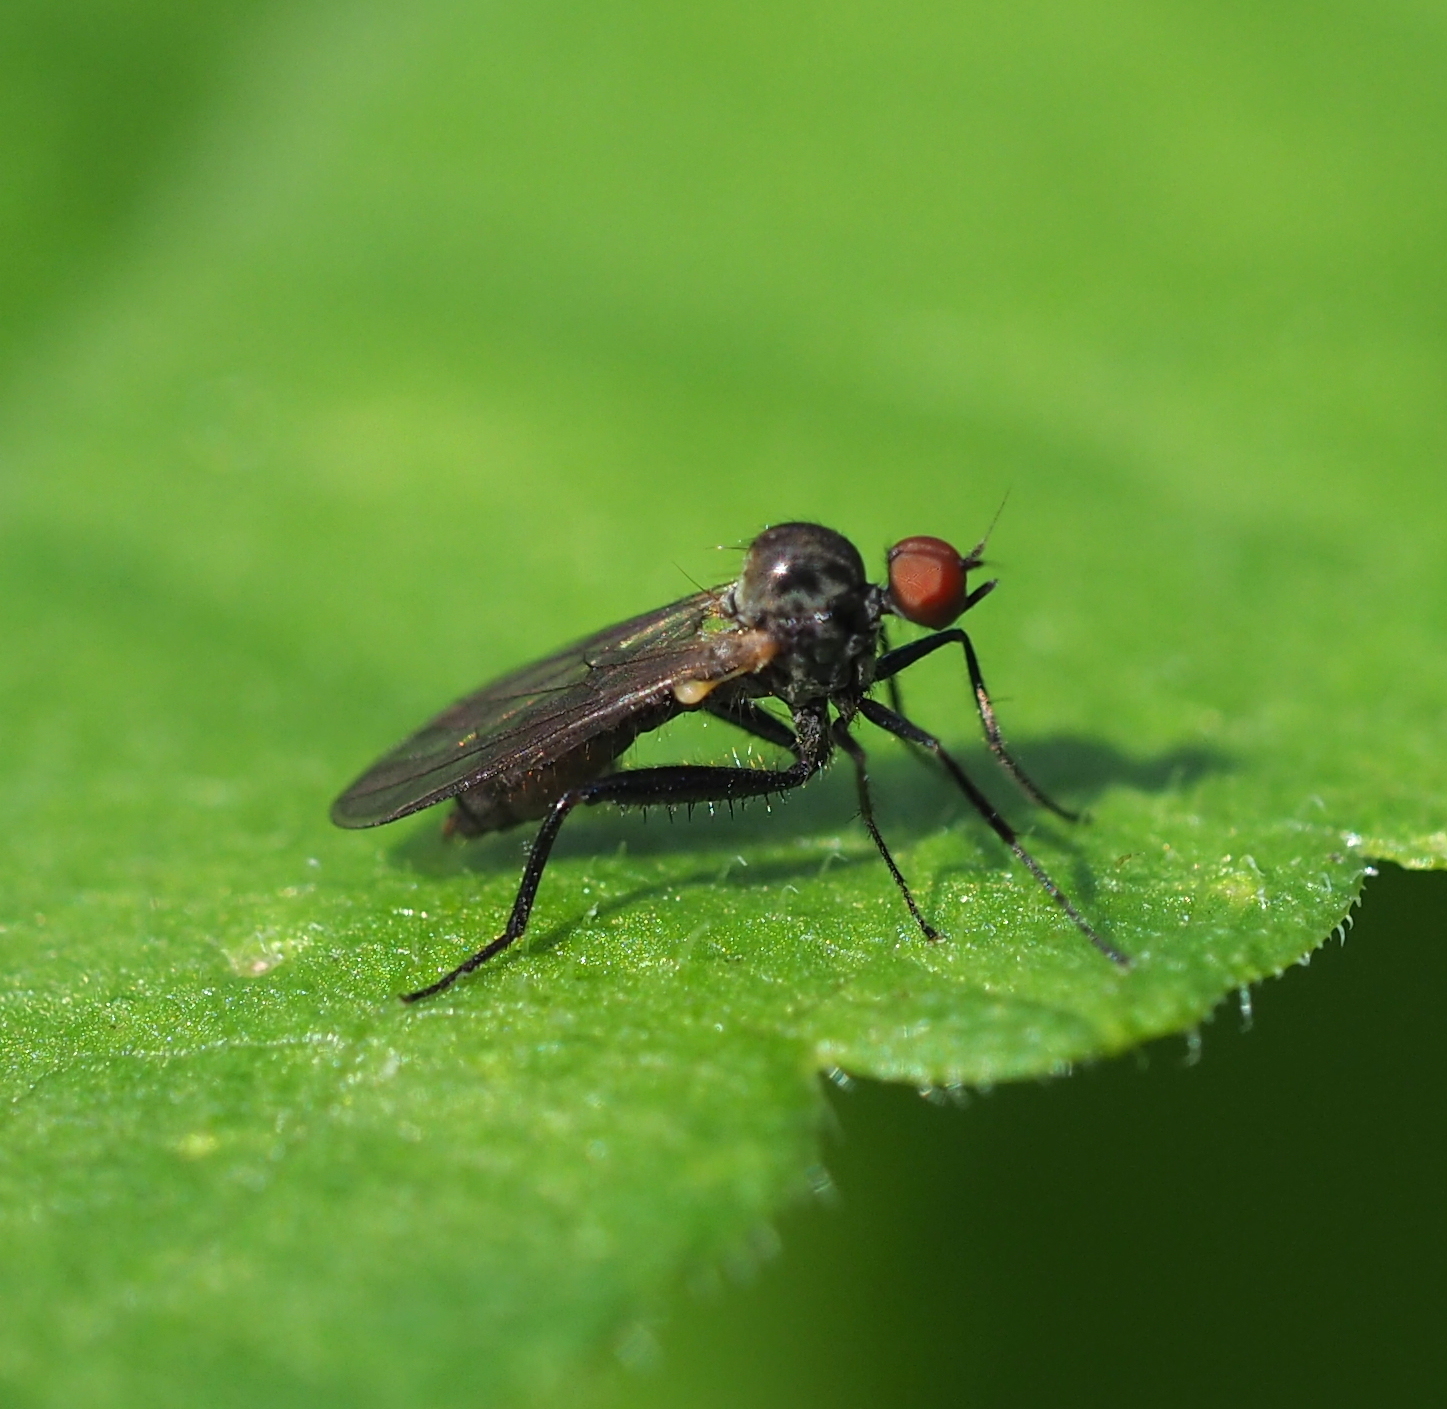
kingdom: Animalia
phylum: Arthropoda
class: Insecta
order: Diptera
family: Hybotidae
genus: Hybos
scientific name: Hybos culiciformis
